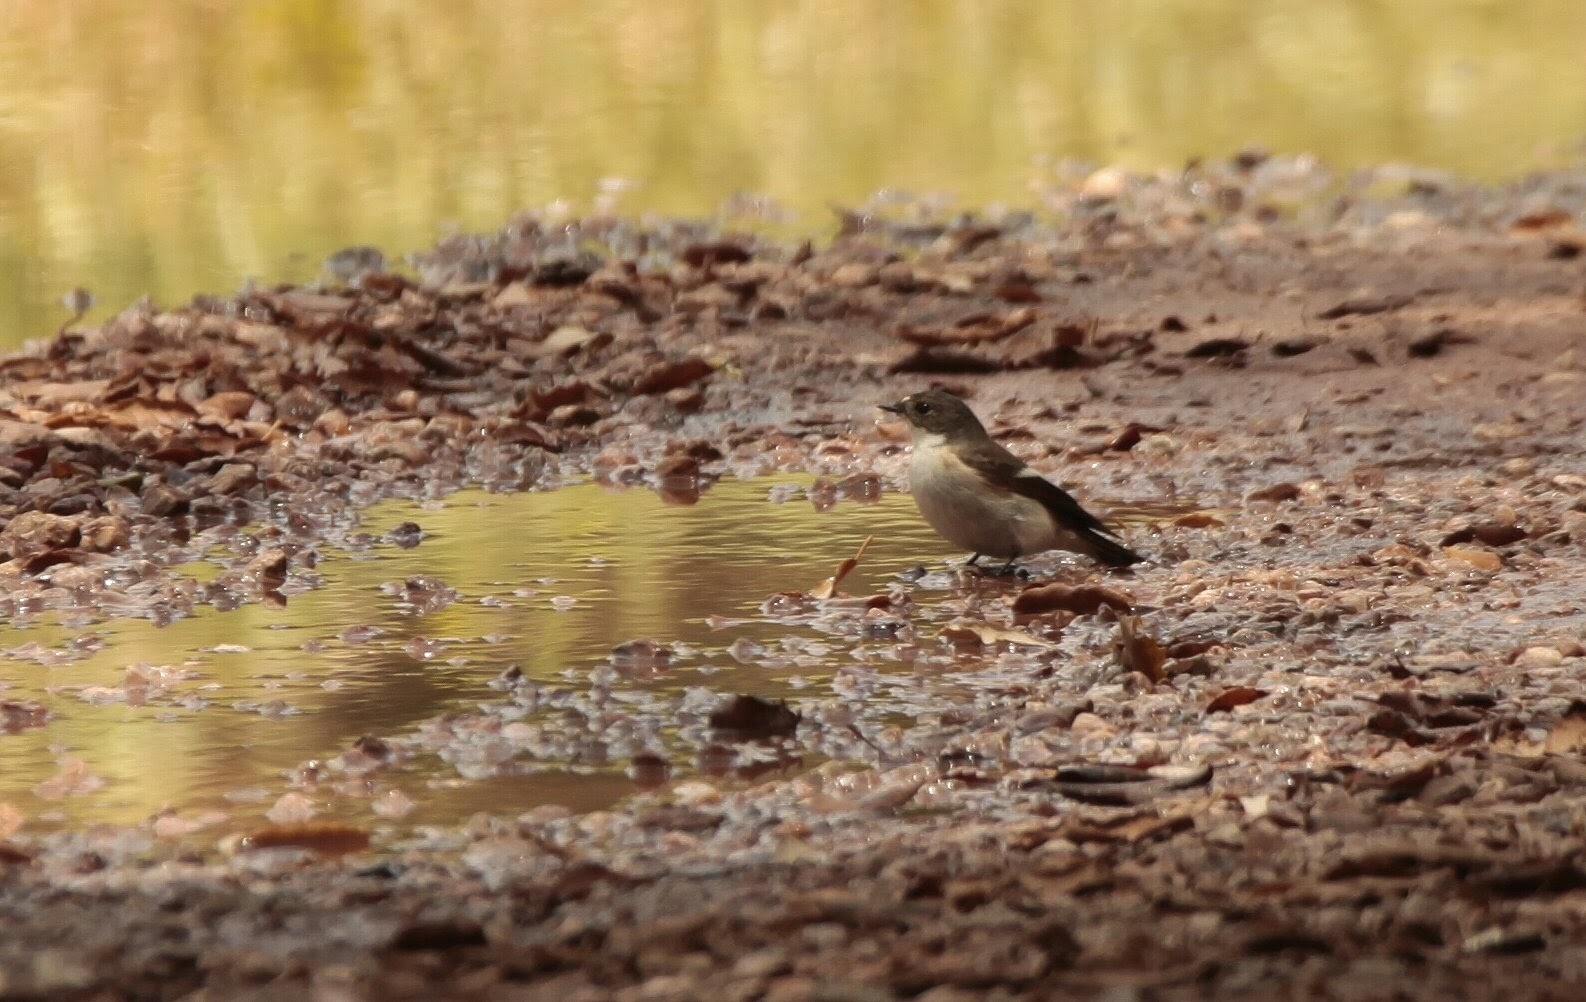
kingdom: Animalia
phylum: Chordata
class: Aves
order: Passeriformes
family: Muscicapidae
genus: Ficedula
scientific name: Ficedula hypoleuca
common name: European pied flycatcher
